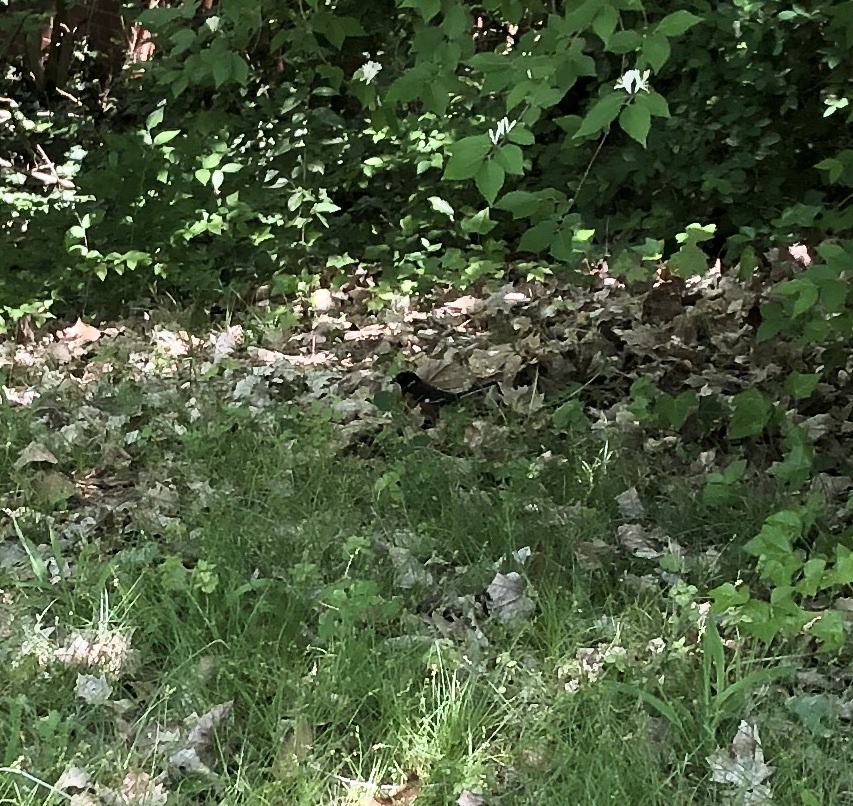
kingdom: Animalia
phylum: Chordata
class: Aves
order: Passeriformes
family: Passerellidae
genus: Pipilo
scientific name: Pipilo erythrophthalmus
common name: Eastern towhee
